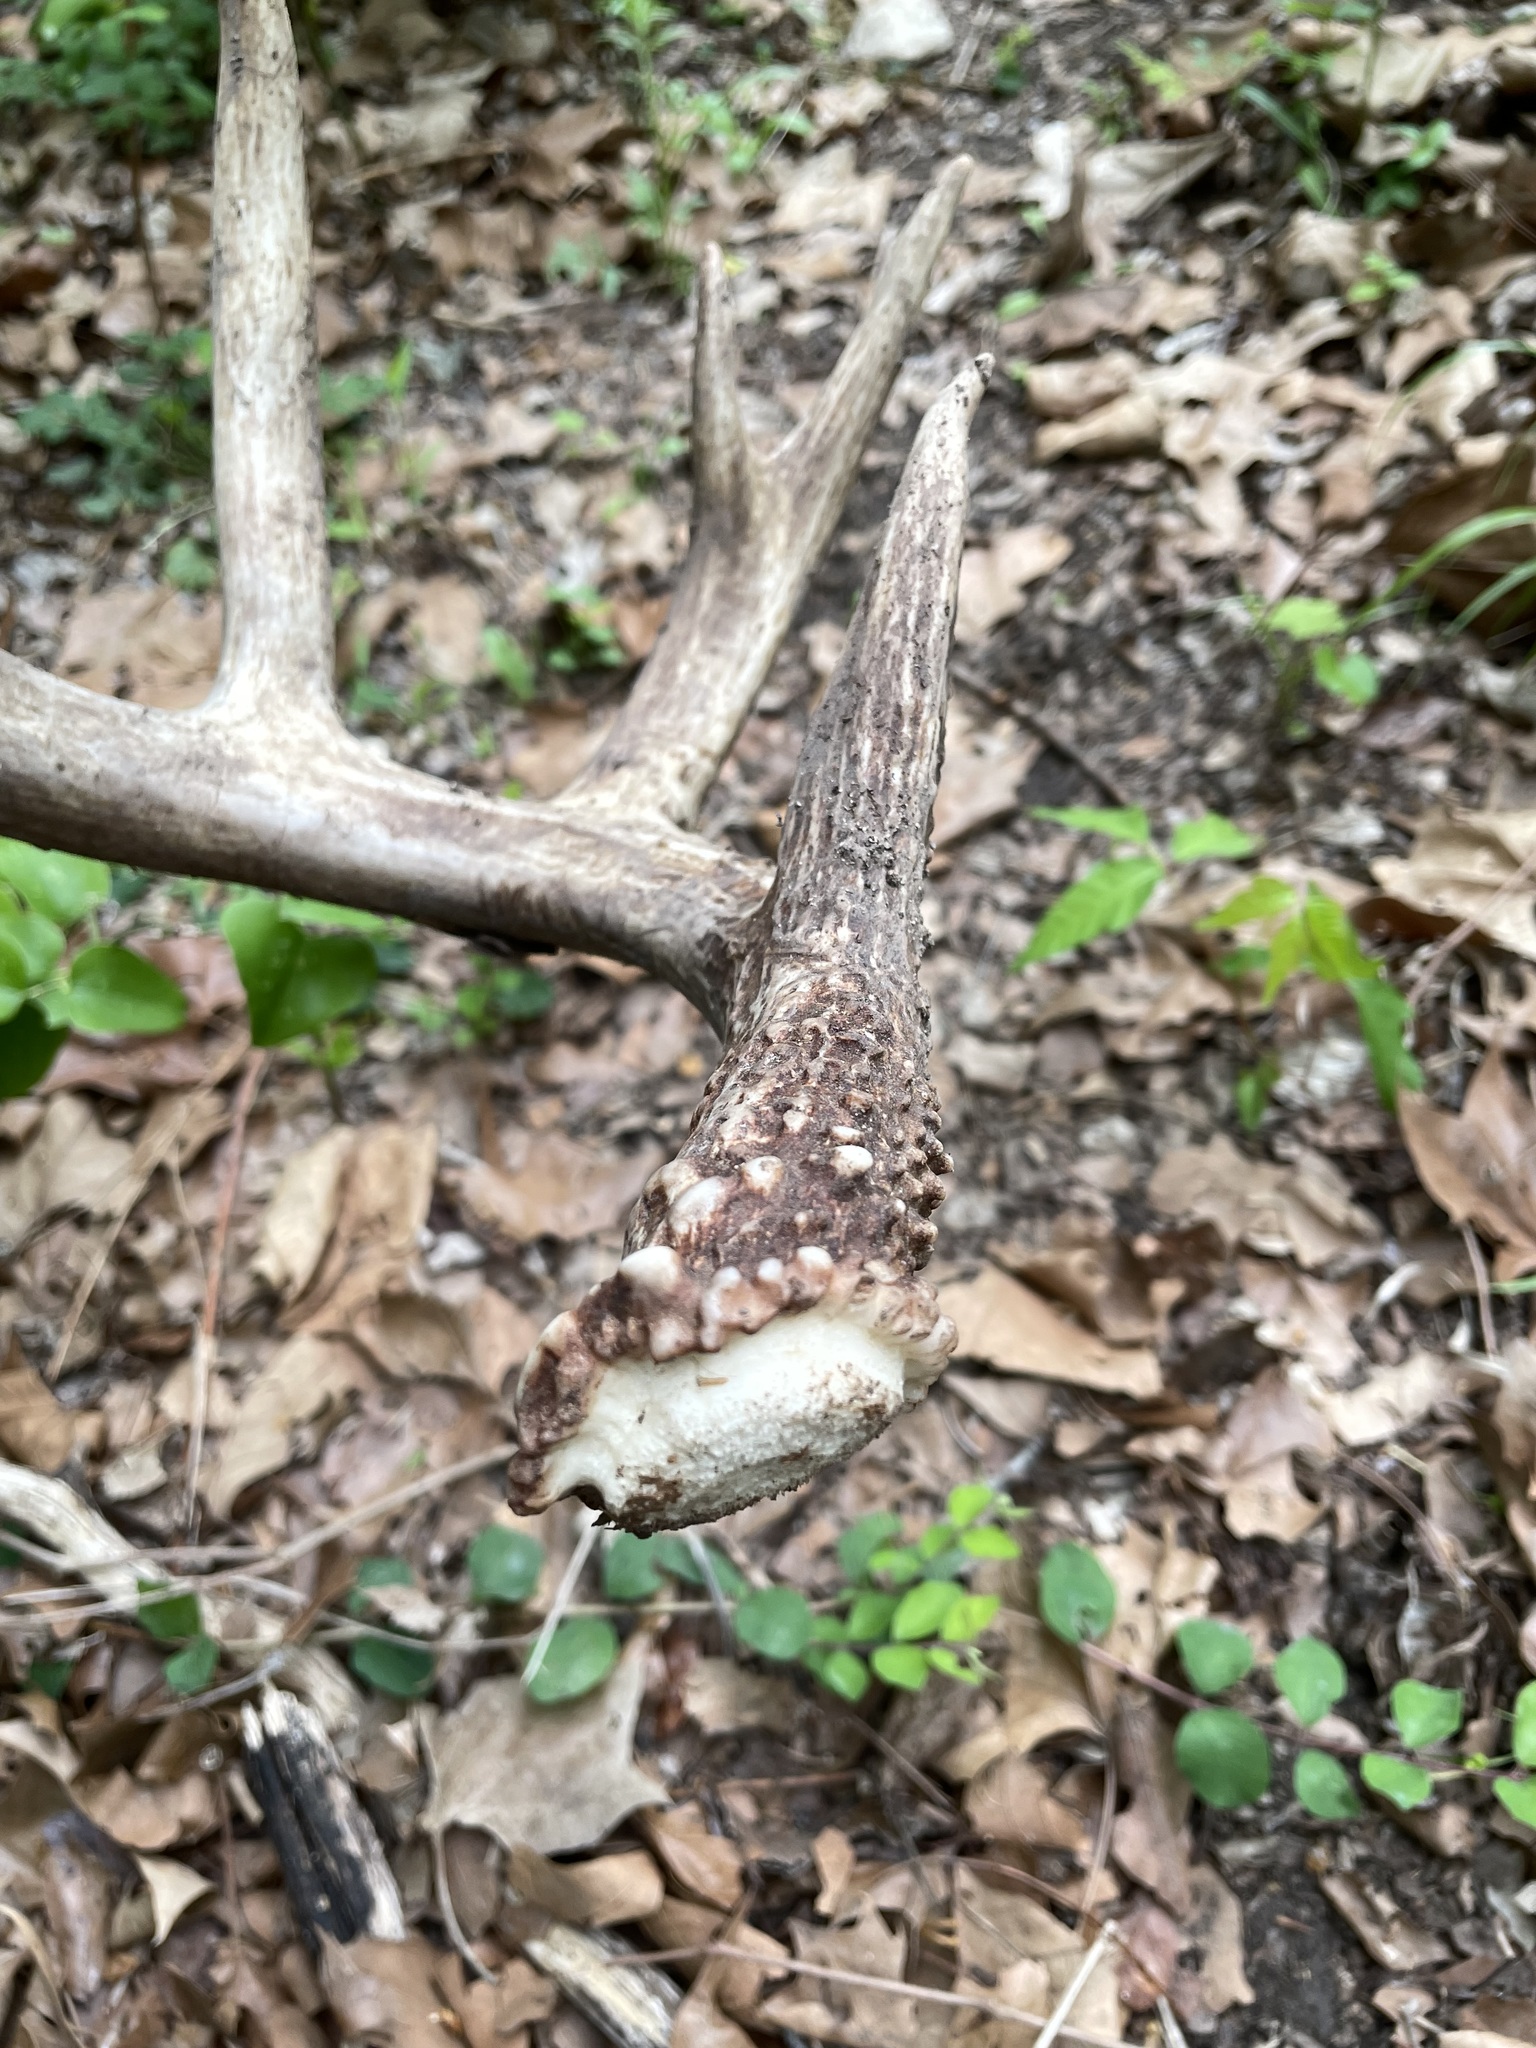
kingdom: Animalia
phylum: Chordata
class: Mammalia
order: Artiodactyla
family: Cervidae
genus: Odocoileus
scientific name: Odocoileus virginianus
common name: White-tailed deer
